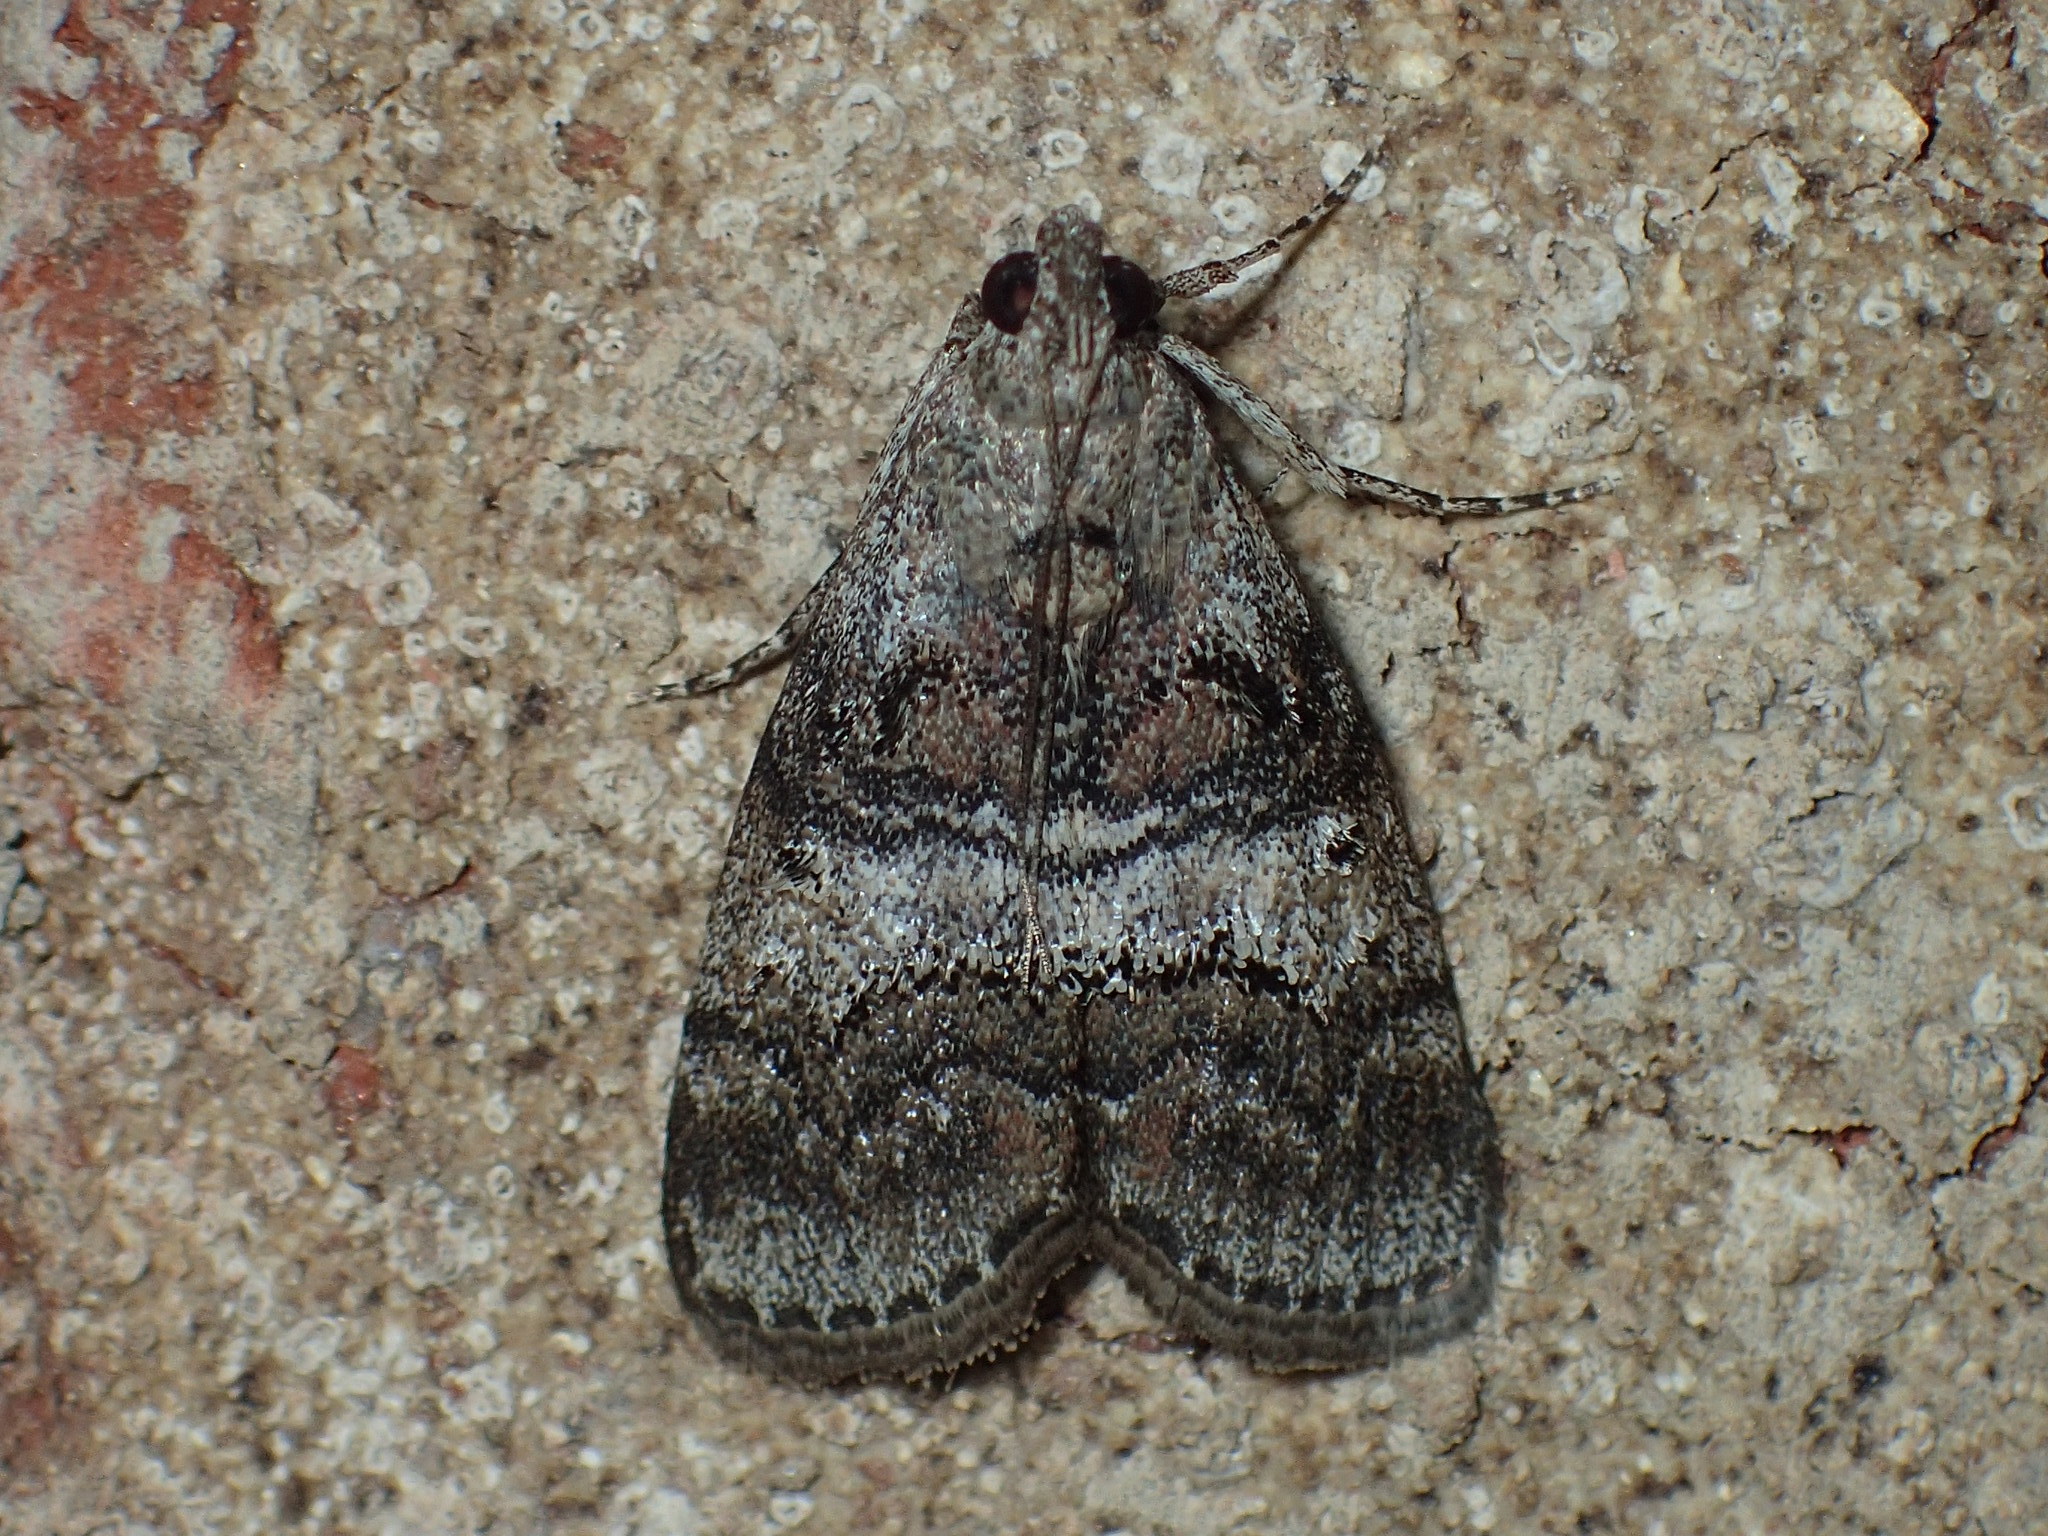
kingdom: Animalia
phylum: Arthropoda
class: Insecta
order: Lepidoptera
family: Pyralidae
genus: Pococera
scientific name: Pococera asperatella
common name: Maple webworm moth
